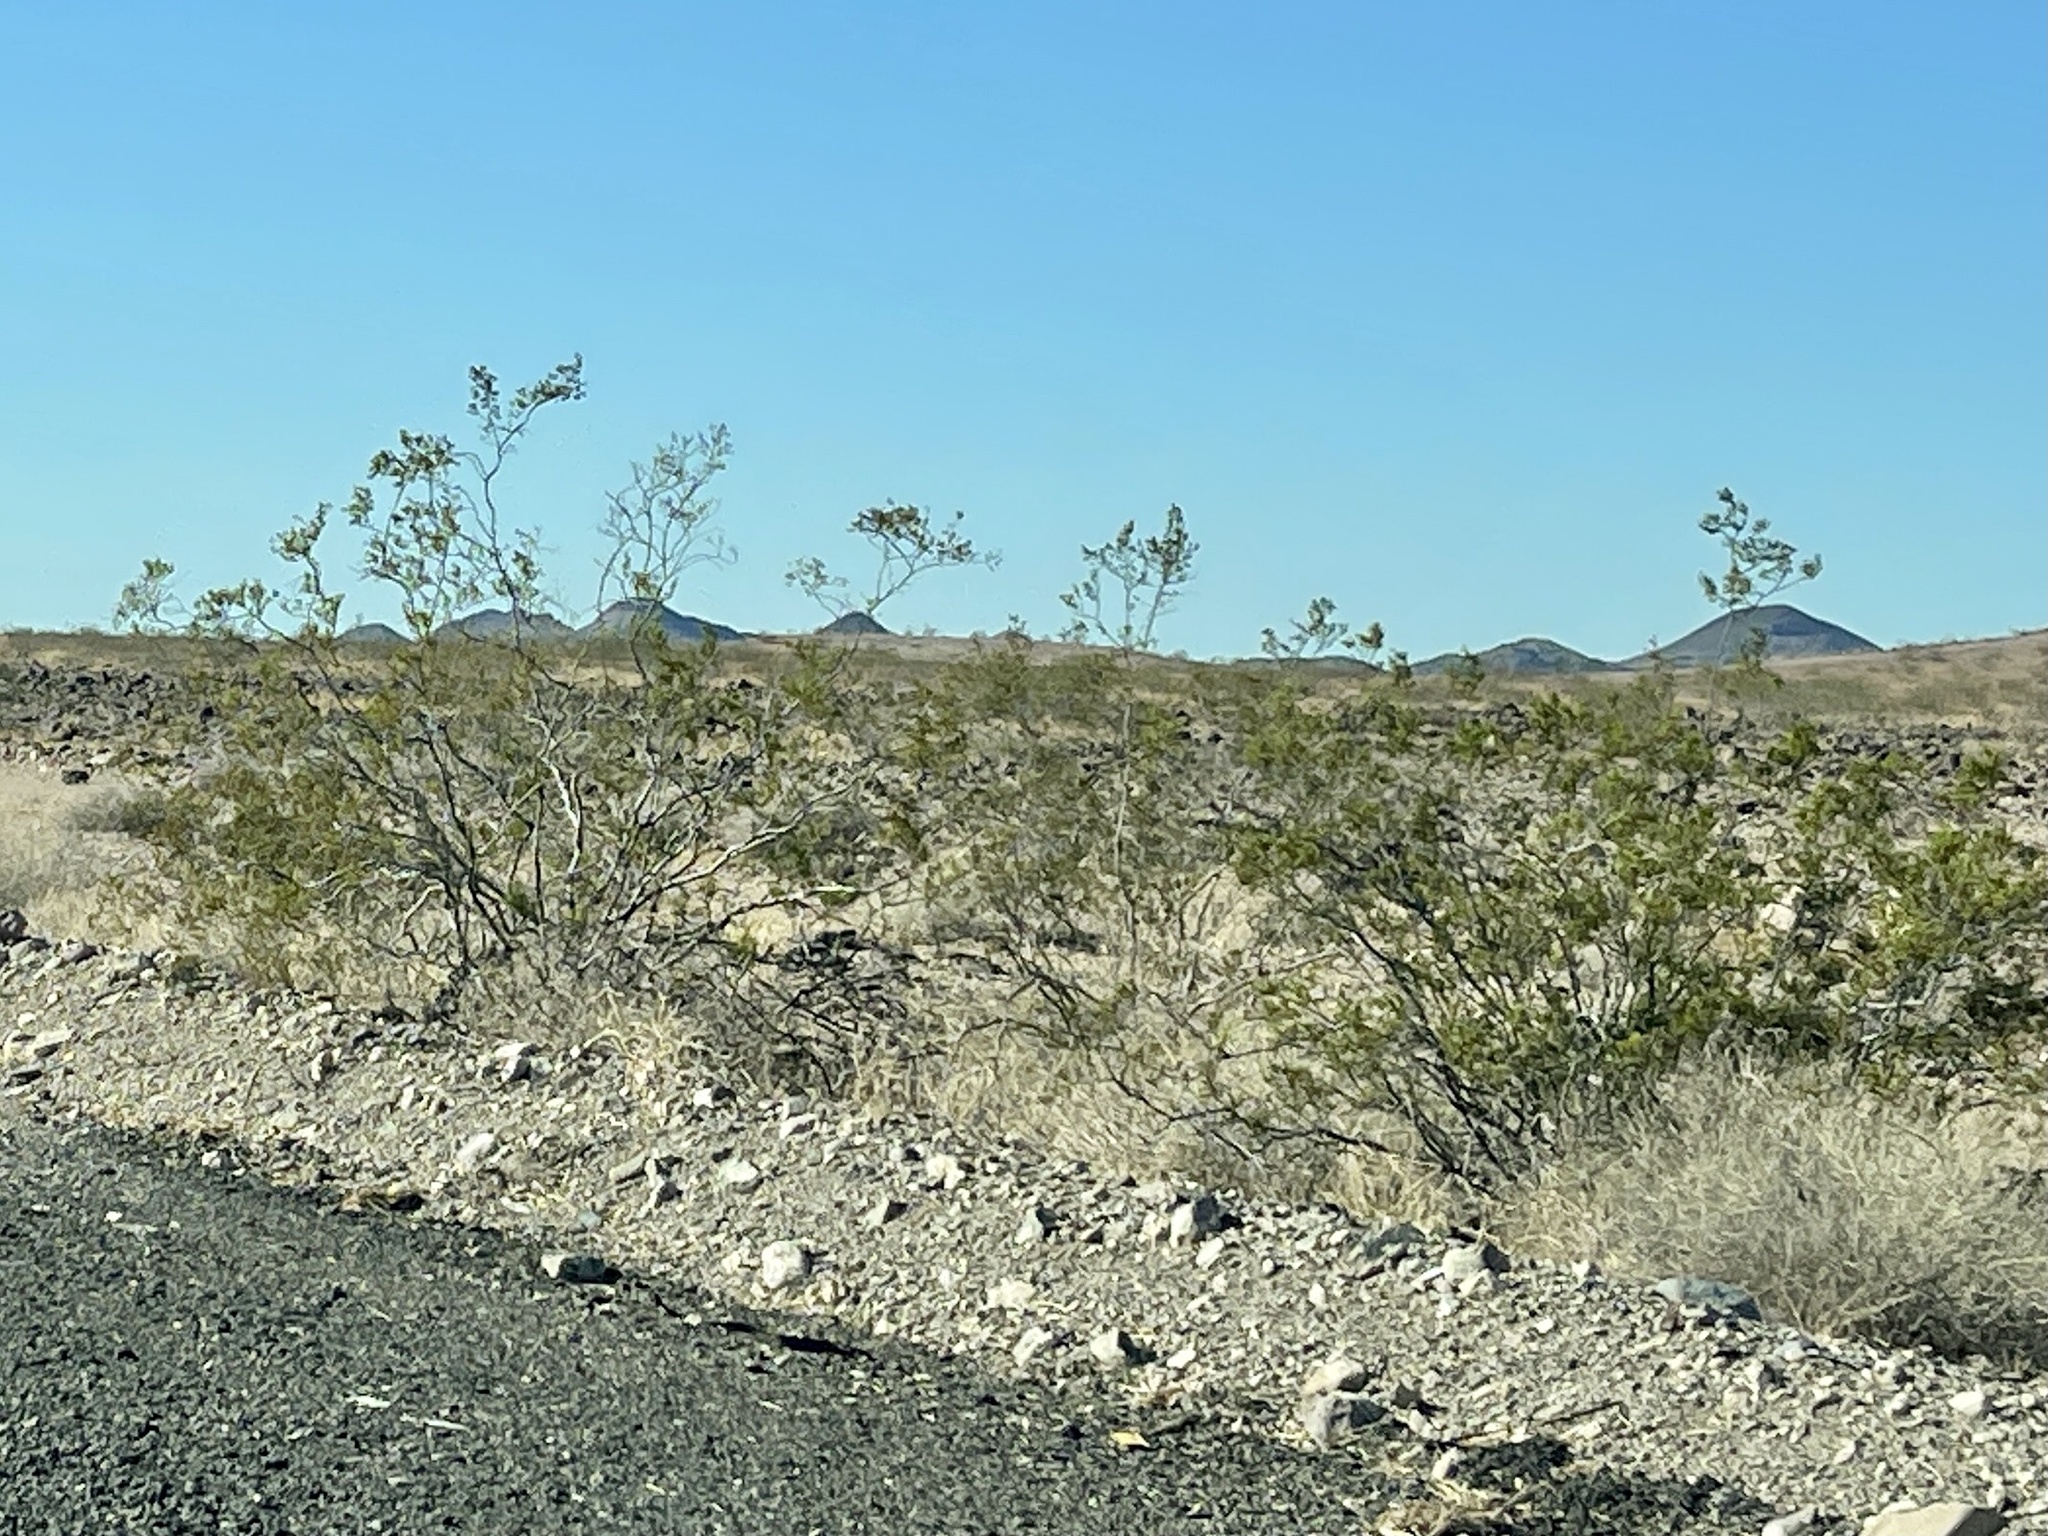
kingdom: Plantae
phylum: Tracheophyta
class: Magnoliopsida
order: Zygophyllales
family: Zygophyllaceae
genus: Larrea
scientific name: Larrea tridentata
